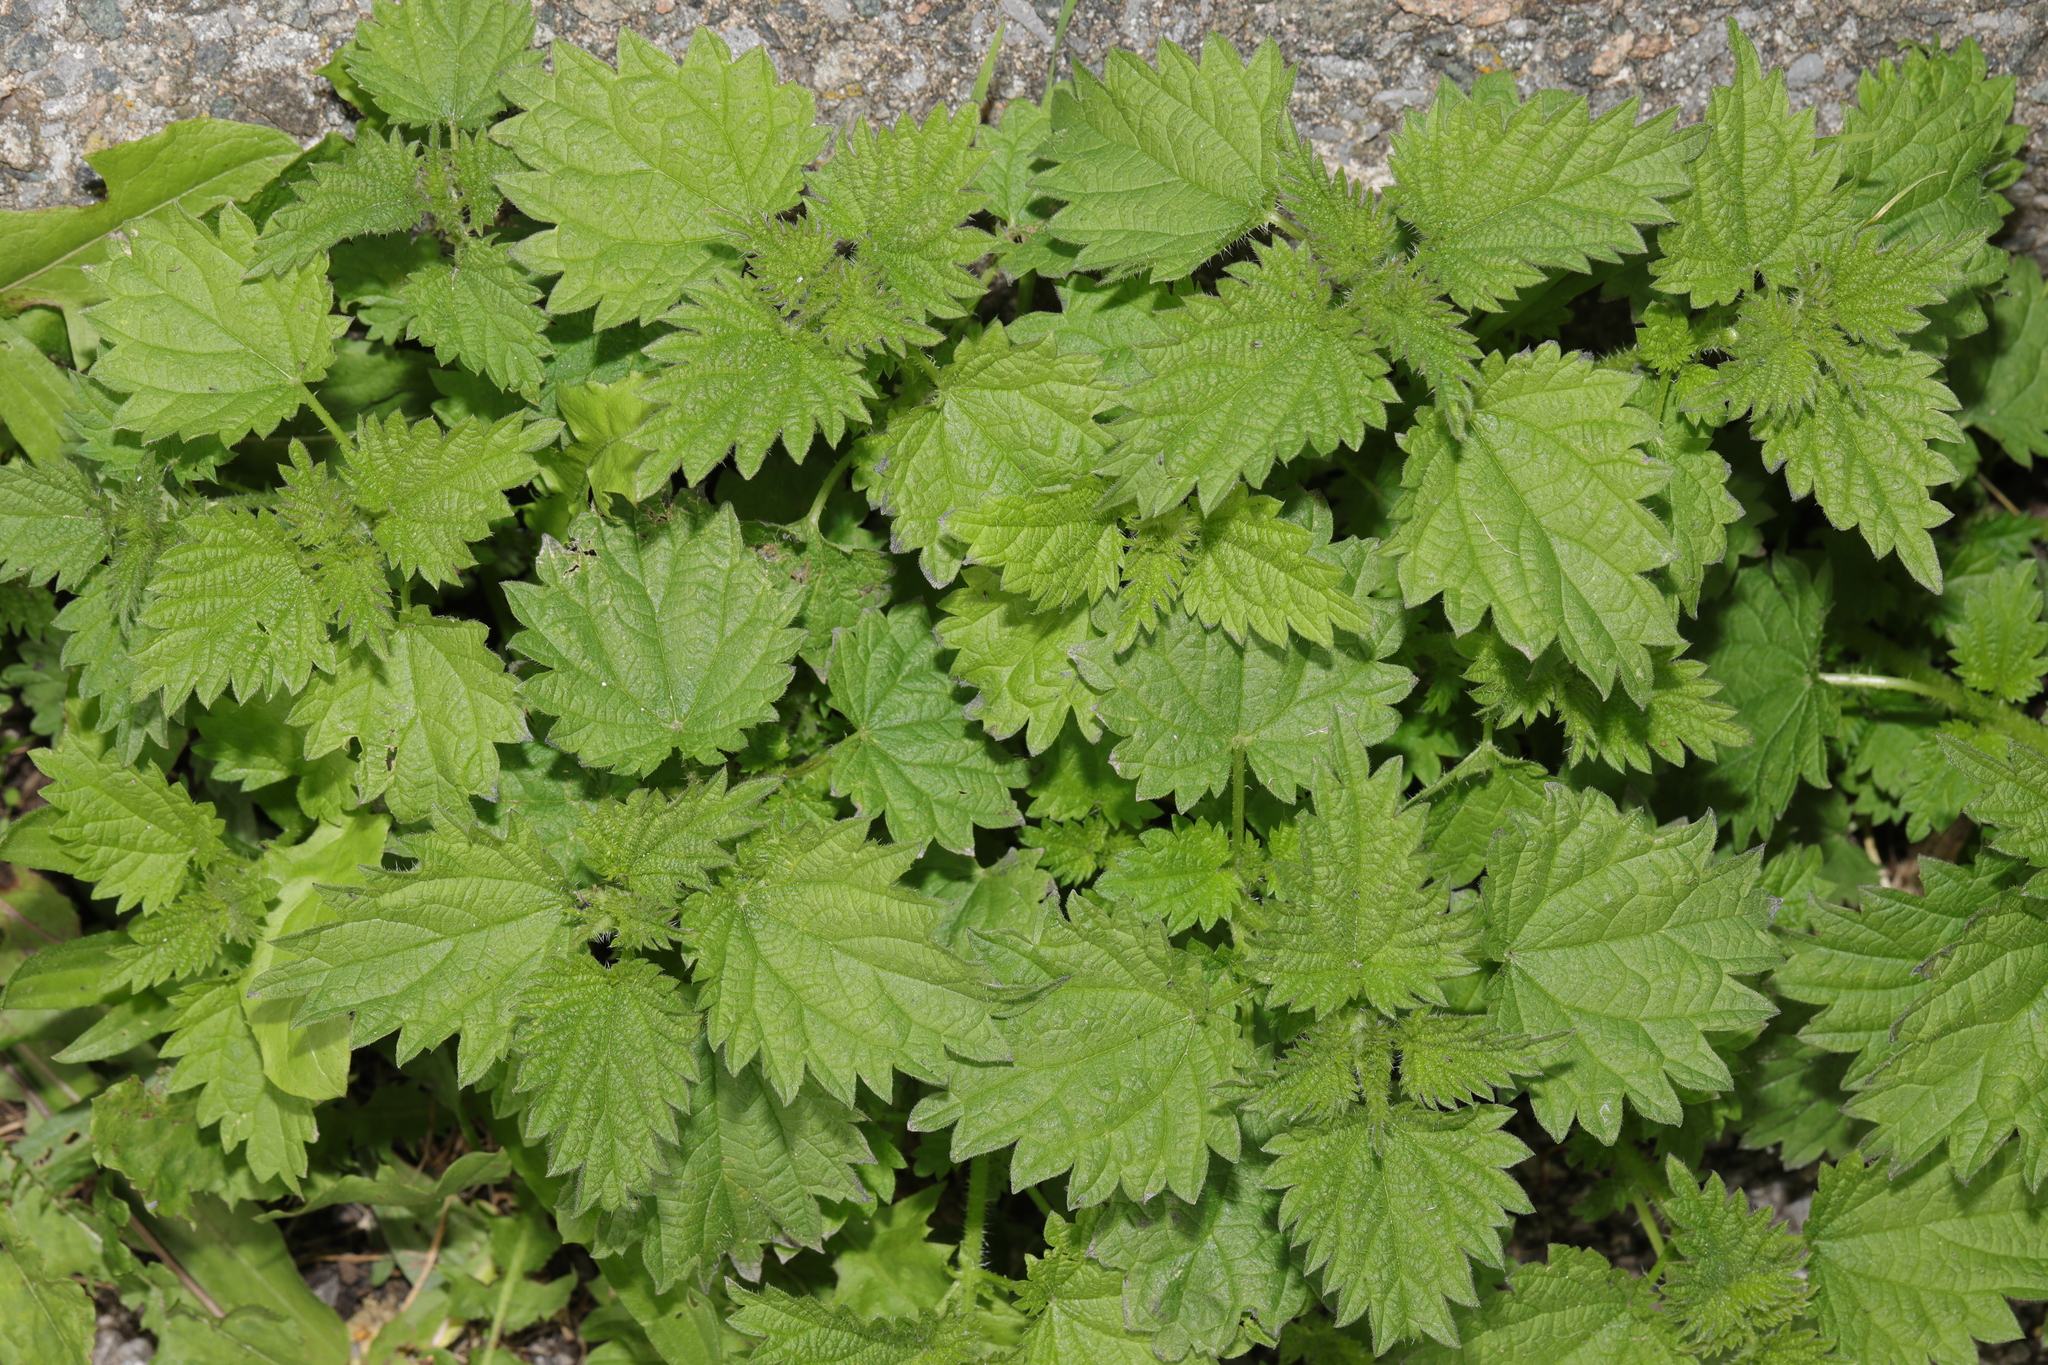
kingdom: Plantae
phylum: Tracheophyta
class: Magnoliopsida
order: Rosales
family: Urticaceae
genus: Urtica
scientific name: Urtica dioica
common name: Common nettle
